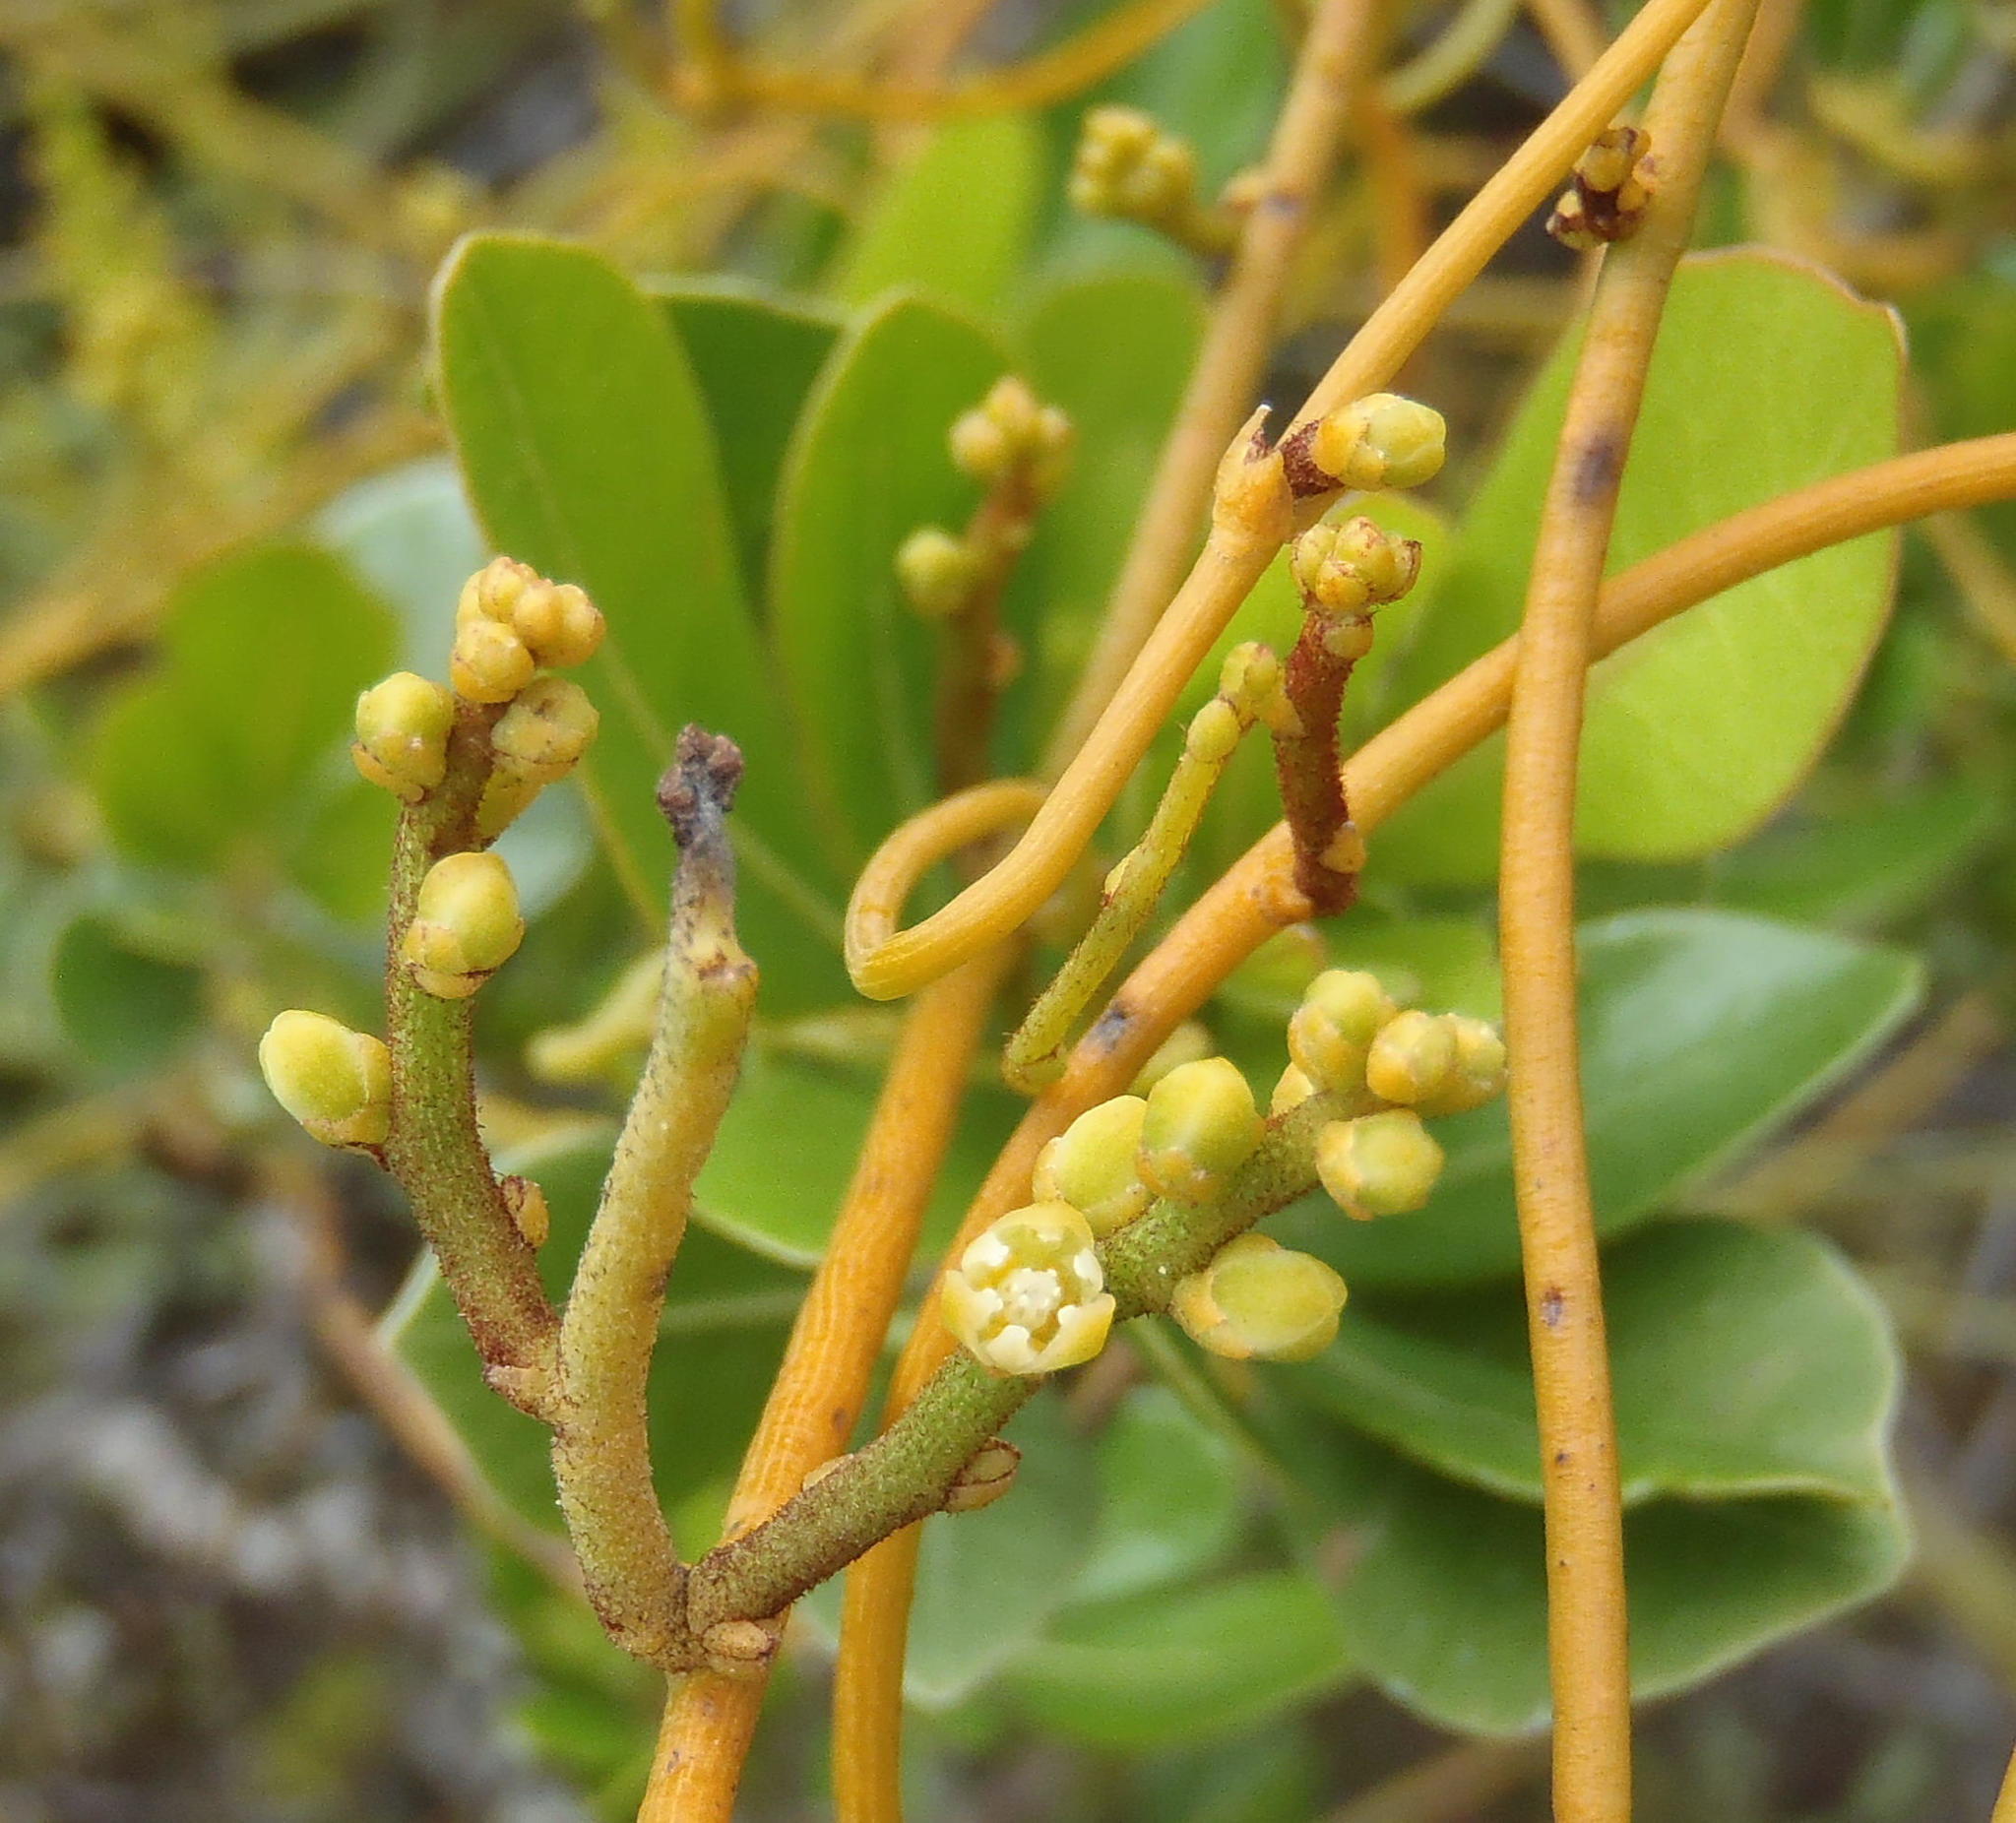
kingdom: Plantae
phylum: Tracheophyta
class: Magnoliopsida
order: Laurales
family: Lauraceae
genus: Cassytha
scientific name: Cassytha ciliolata
